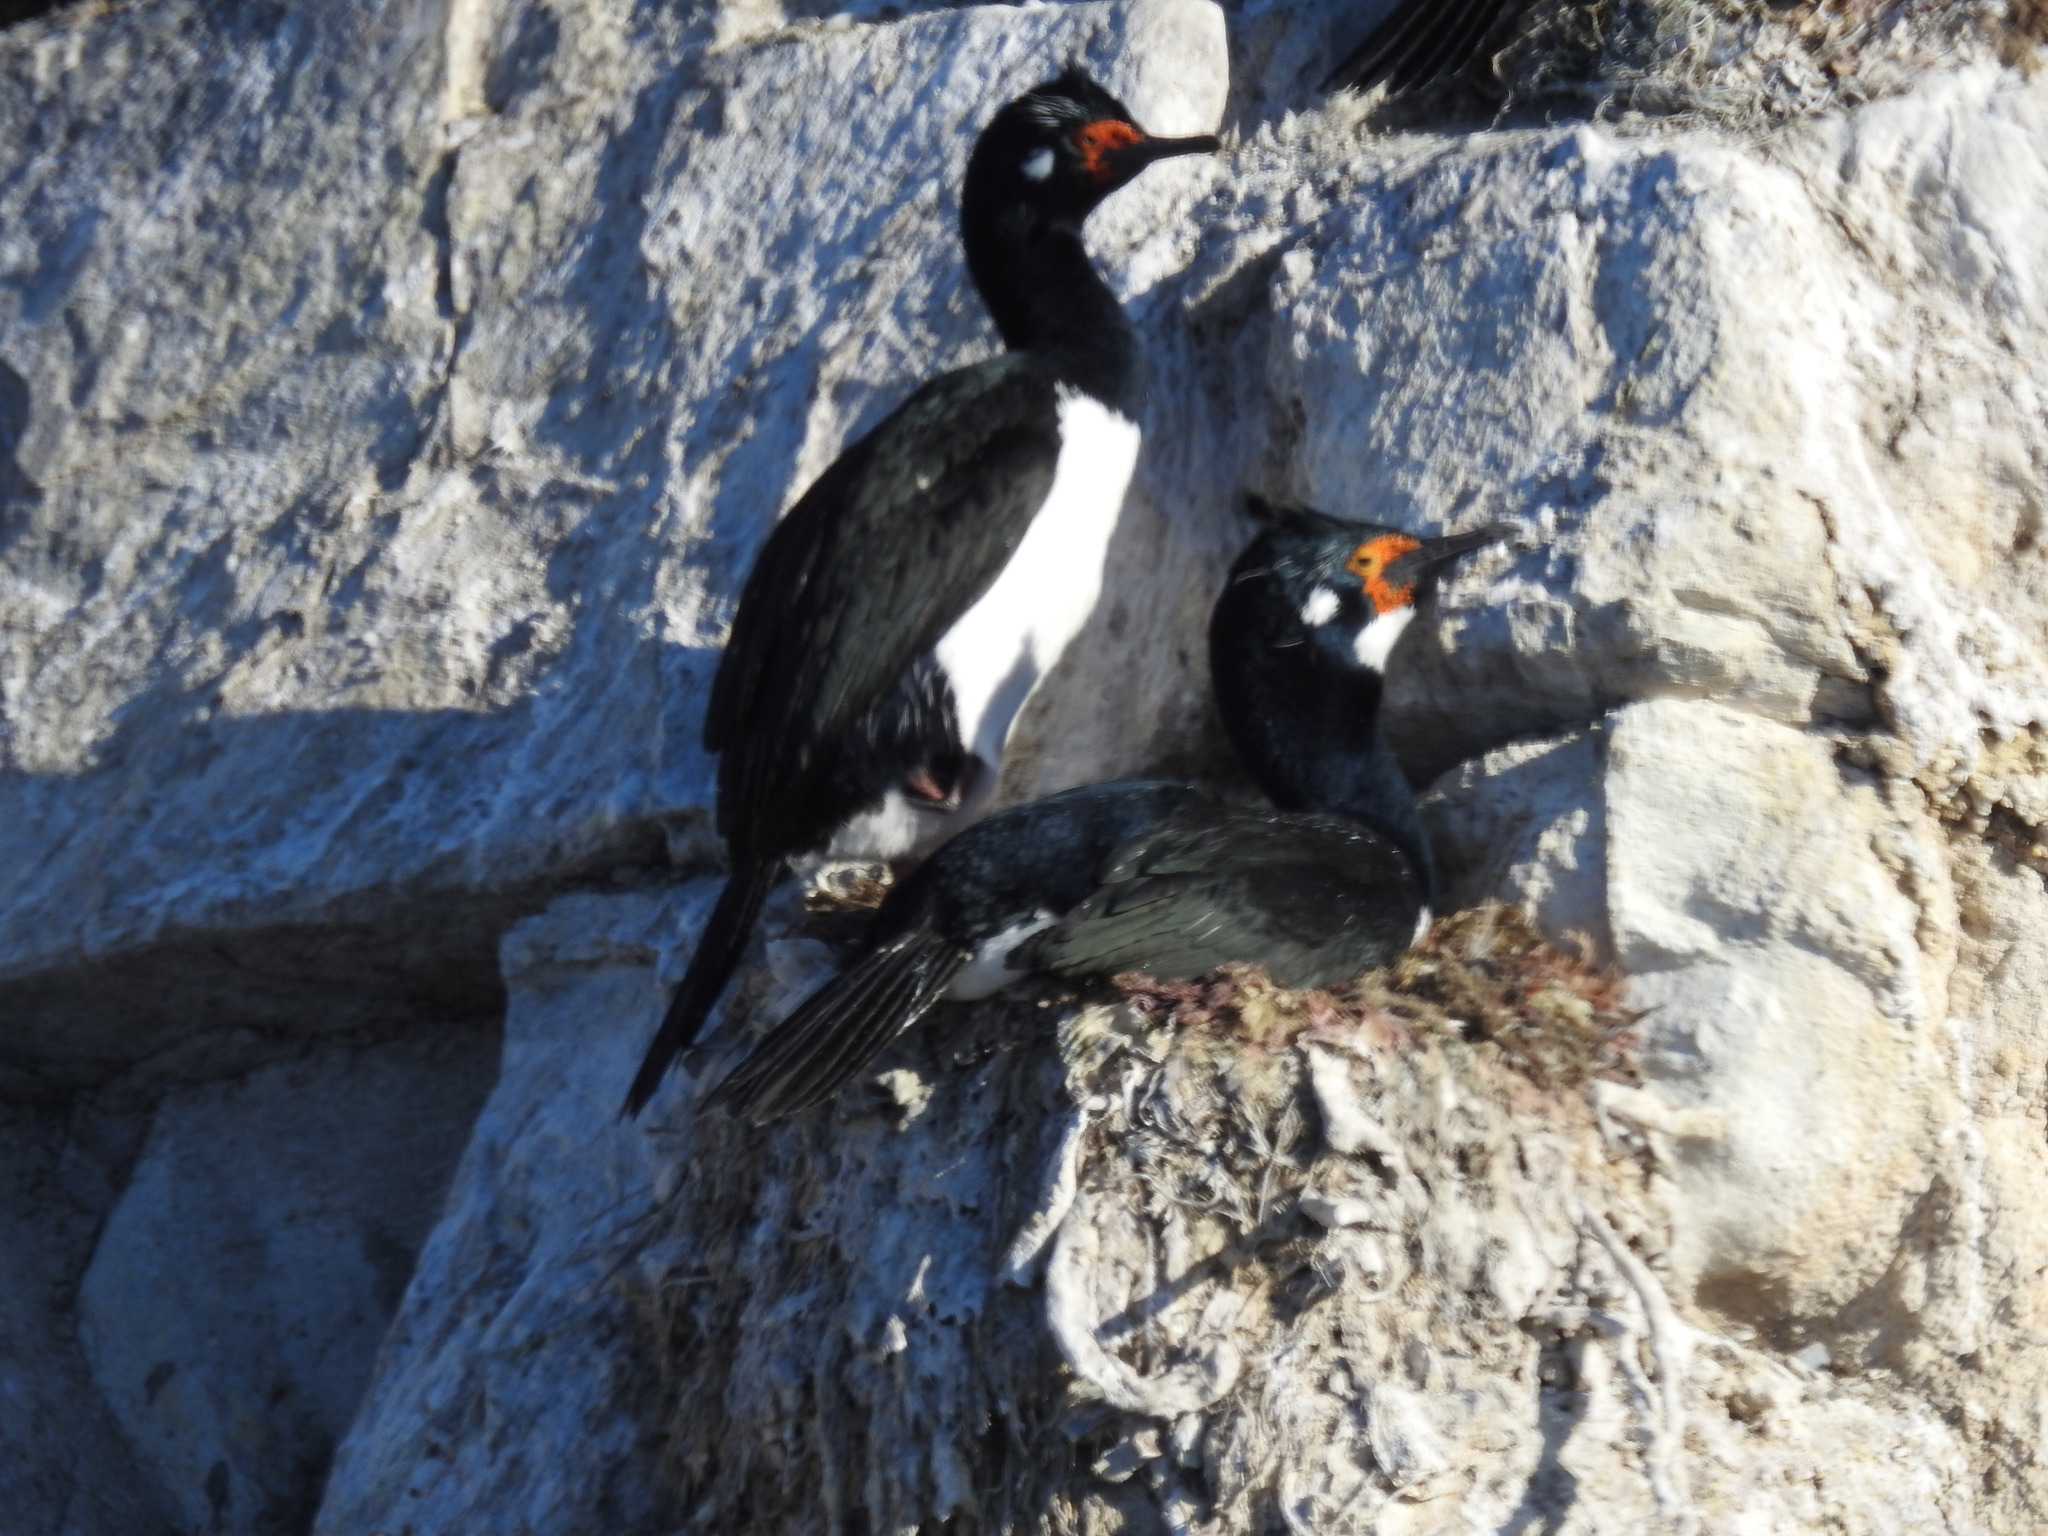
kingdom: Animalia
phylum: Chordata
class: Aves
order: Suliformes
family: Phalacrocoracidae
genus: Phalacrocorax
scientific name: Phalacrocorax magellanicus
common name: Rock shag
